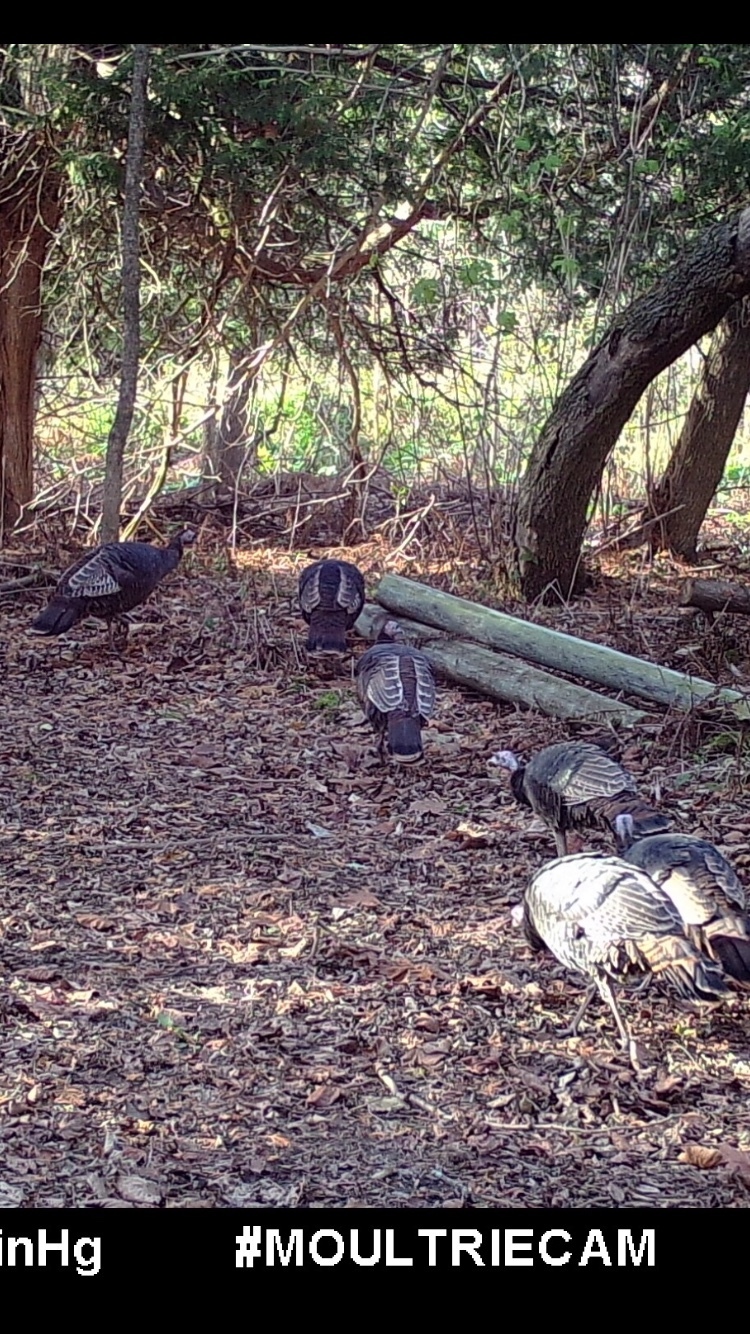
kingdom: Animalia
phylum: Chordata
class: Aves
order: Galliformes
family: Phasianidae
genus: Meleagris
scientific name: Meleagris gallopavo
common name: Wild turkey
